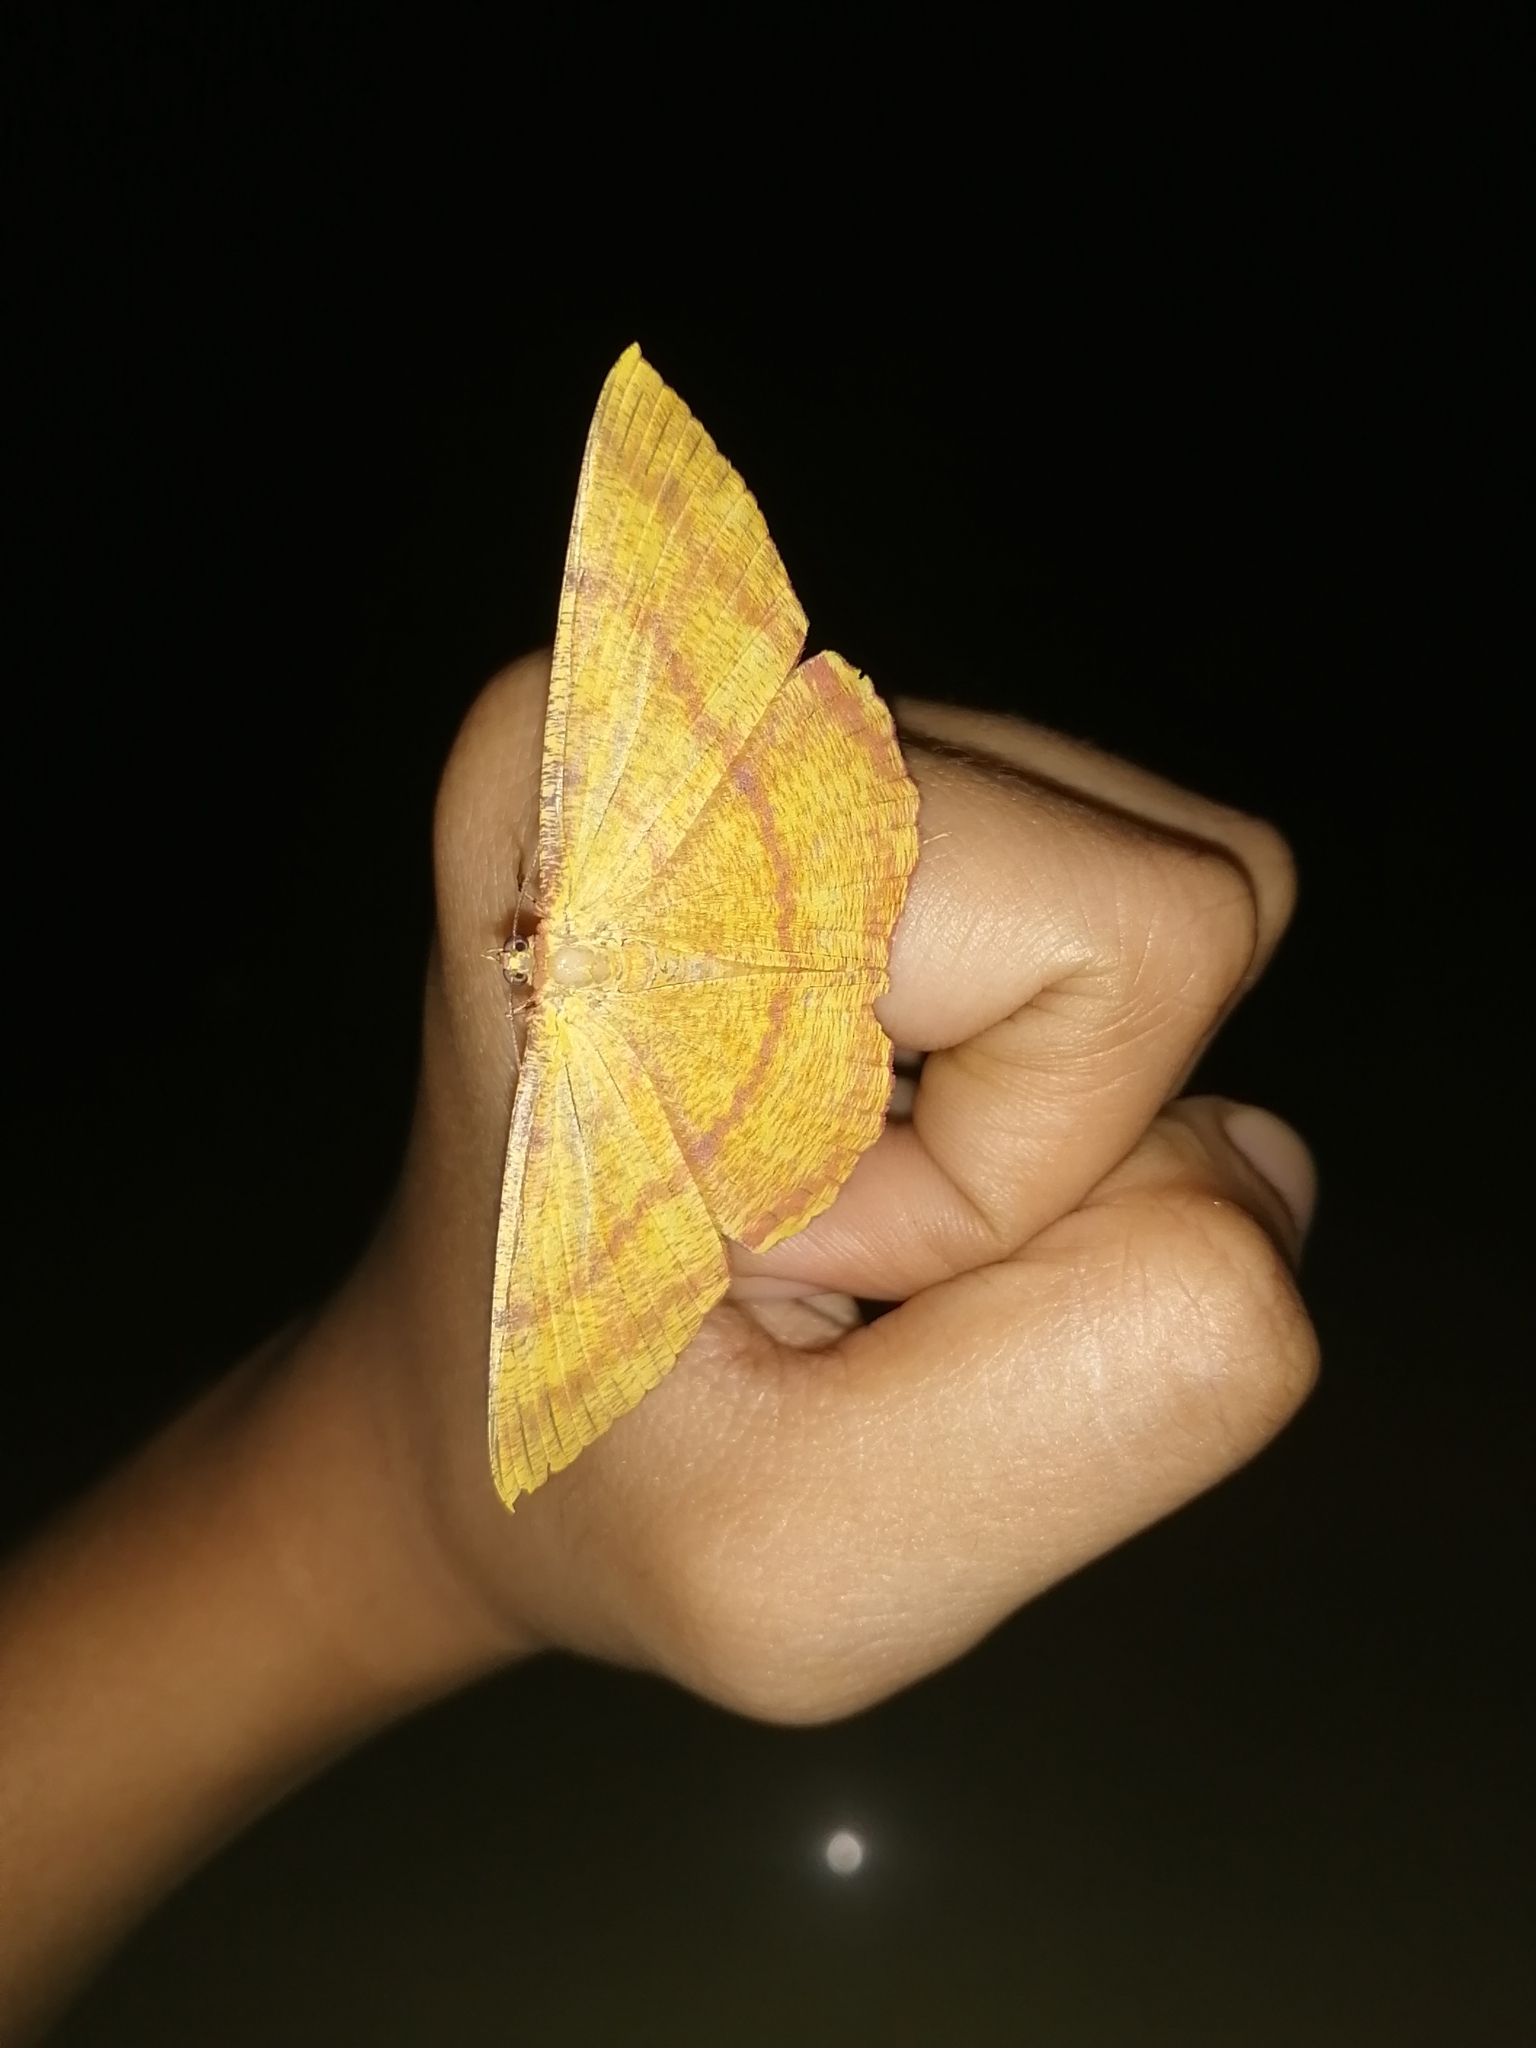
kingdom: Animalia
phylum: Arthropoda
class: Insecta
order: Lepidoptera
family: Geometridae
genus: Eumelea
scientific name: Eumelea rosalia
